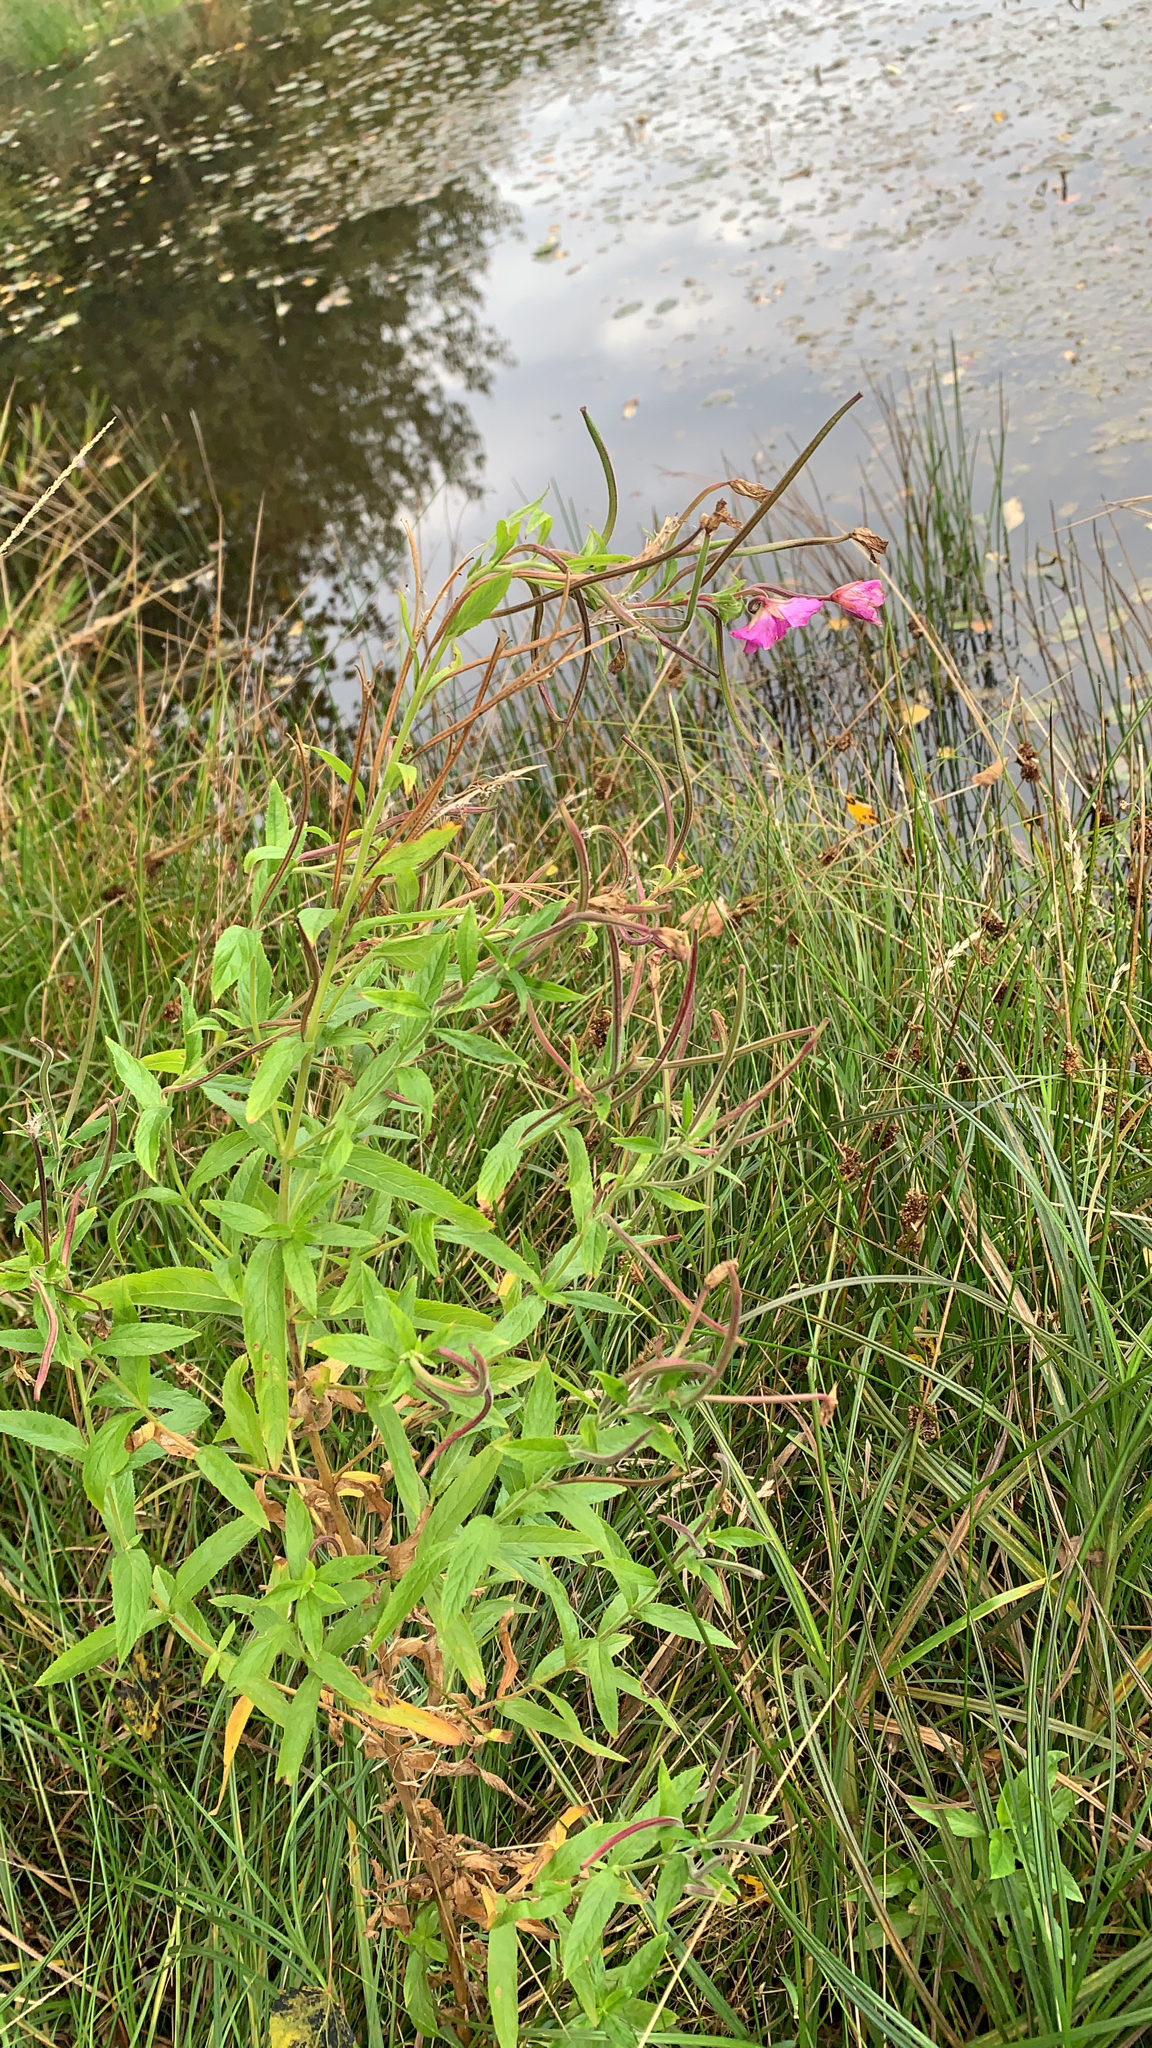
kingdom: Plantae
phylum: Tracheophyta
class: Magnoliopsida
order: Myrtales
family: Onagraceae
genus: Epilobium
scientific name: Epilobium hirsutum
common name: Great willowherb
